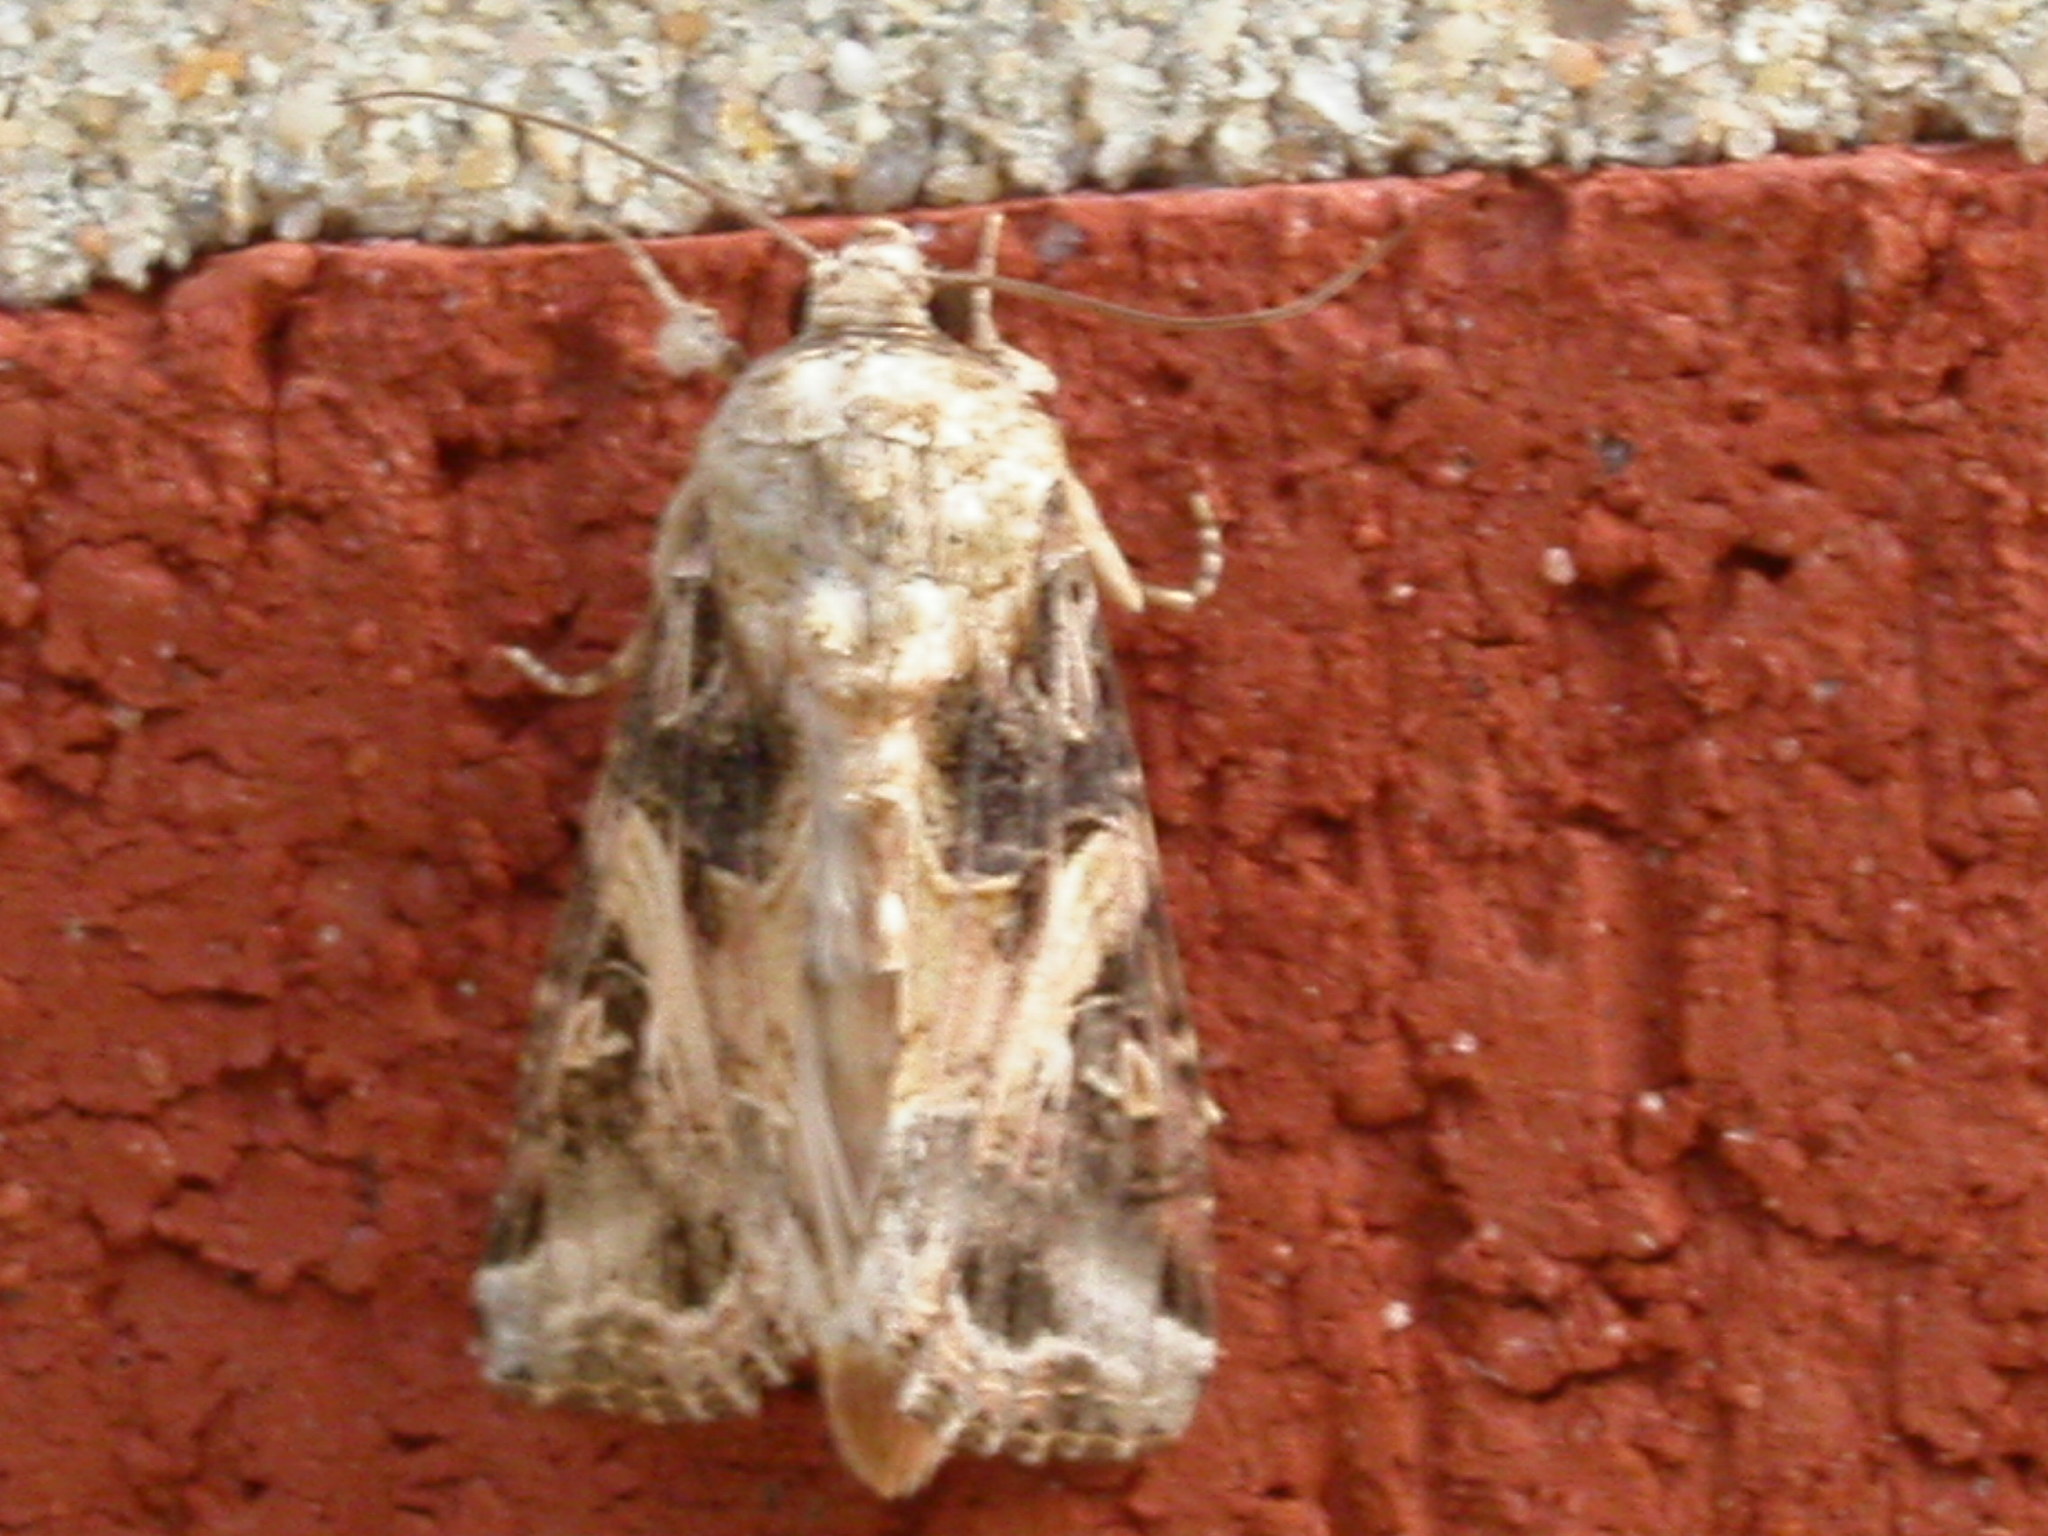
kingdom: Animalia
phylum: Arthropoda
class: Insecta
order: Lepidoptera
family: Noctuidae
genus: Spodoptera
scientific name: Spodoptera ornithogalli
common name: Yellow-striped armyworm
